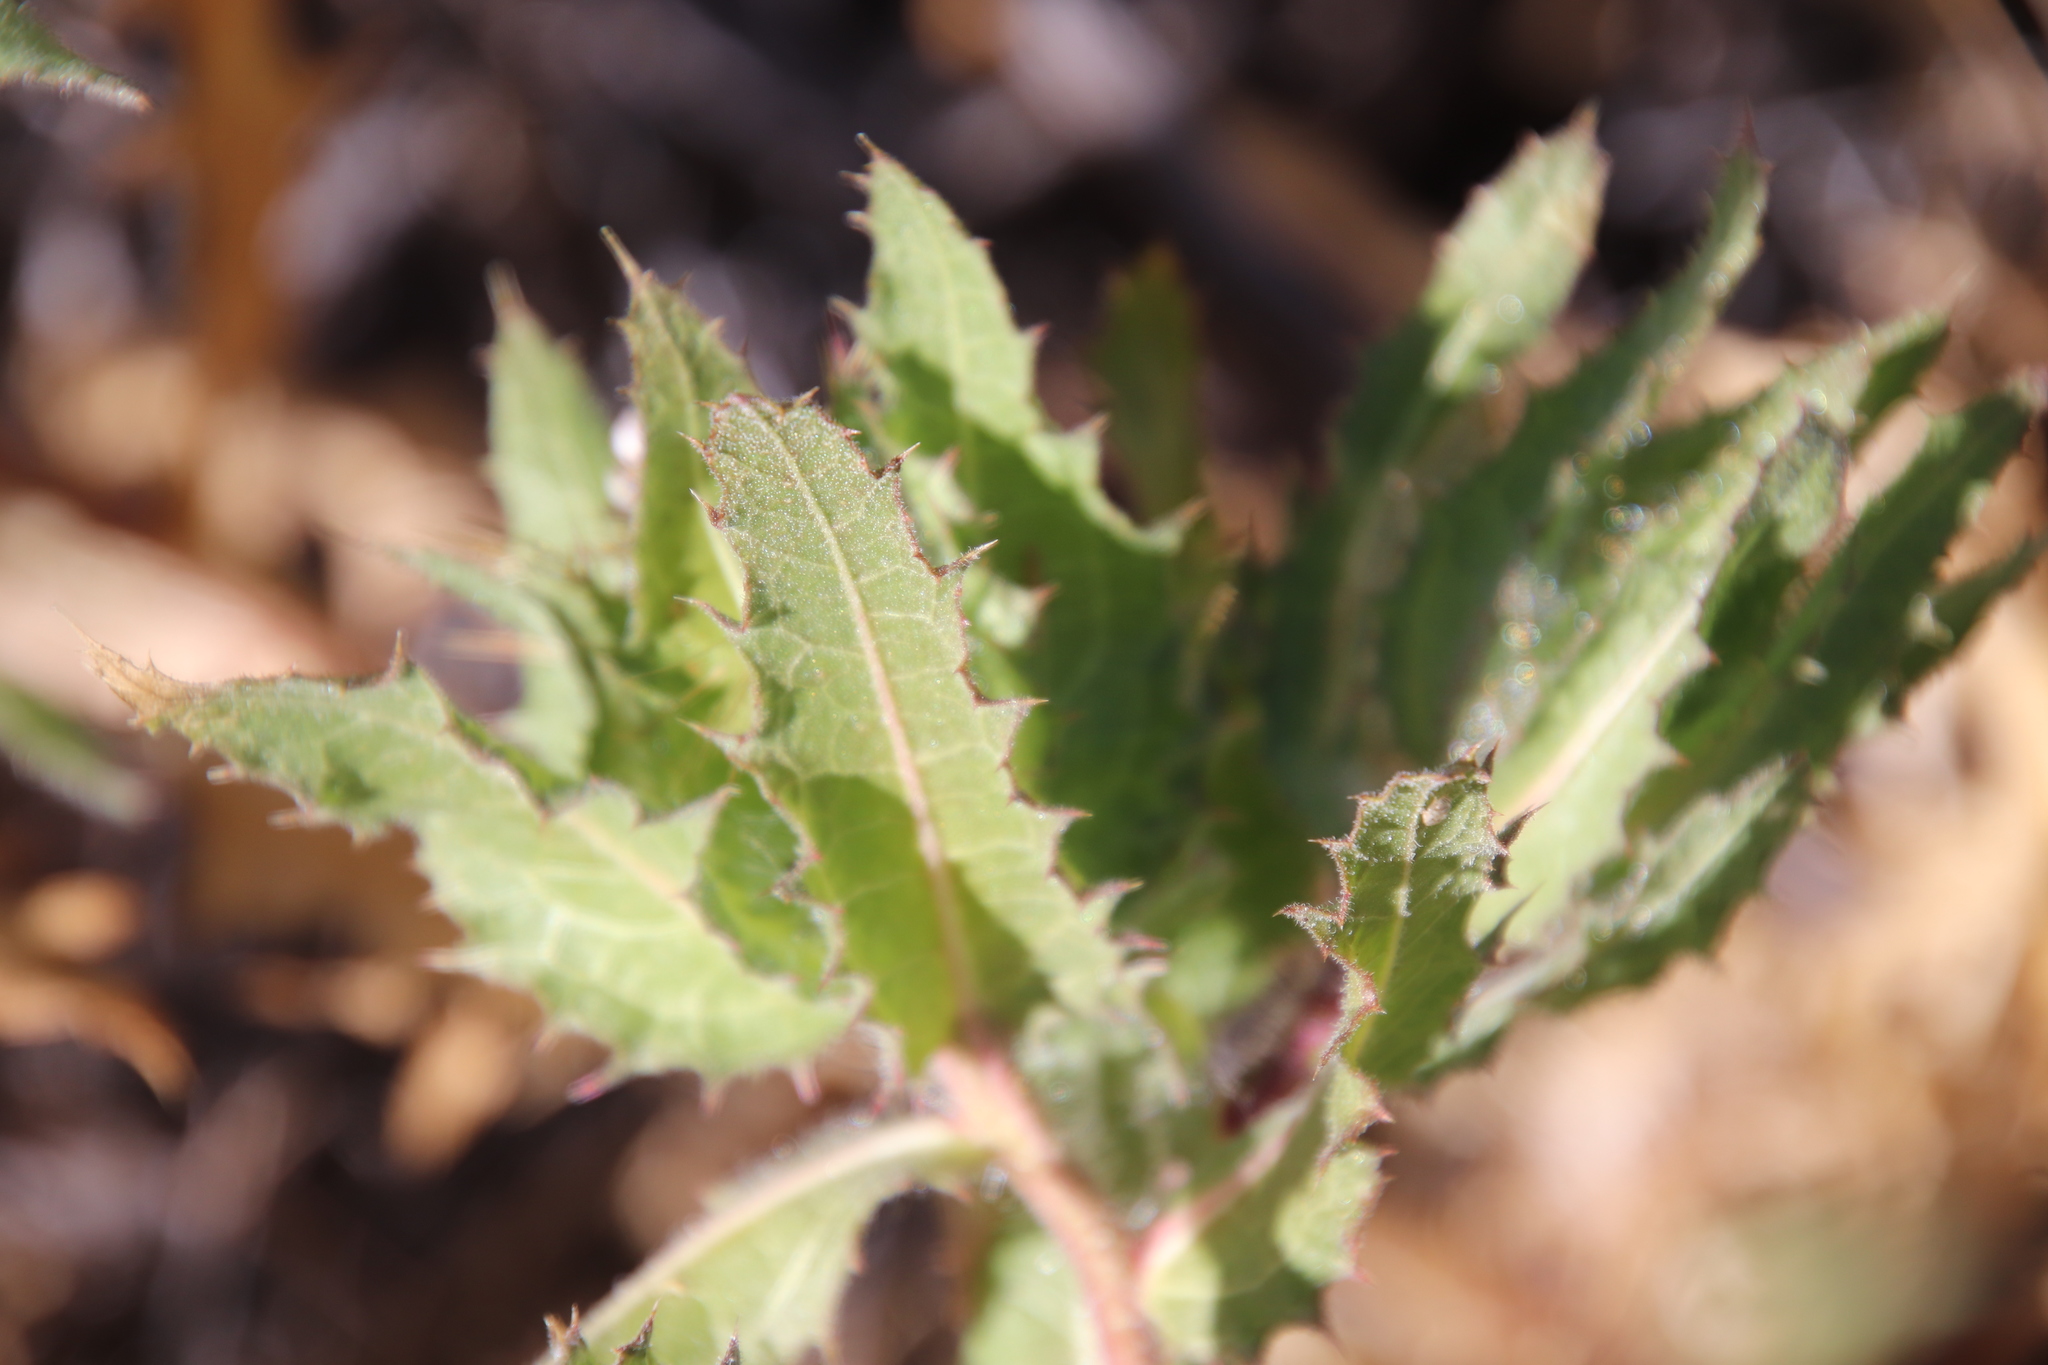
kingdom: Plantae
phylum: Tracheophyta
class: Magnoliopsida
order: Asterales
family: Asteraceae
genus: Centaurea
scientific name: Centaurea benedicta
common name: Blessed thistle
